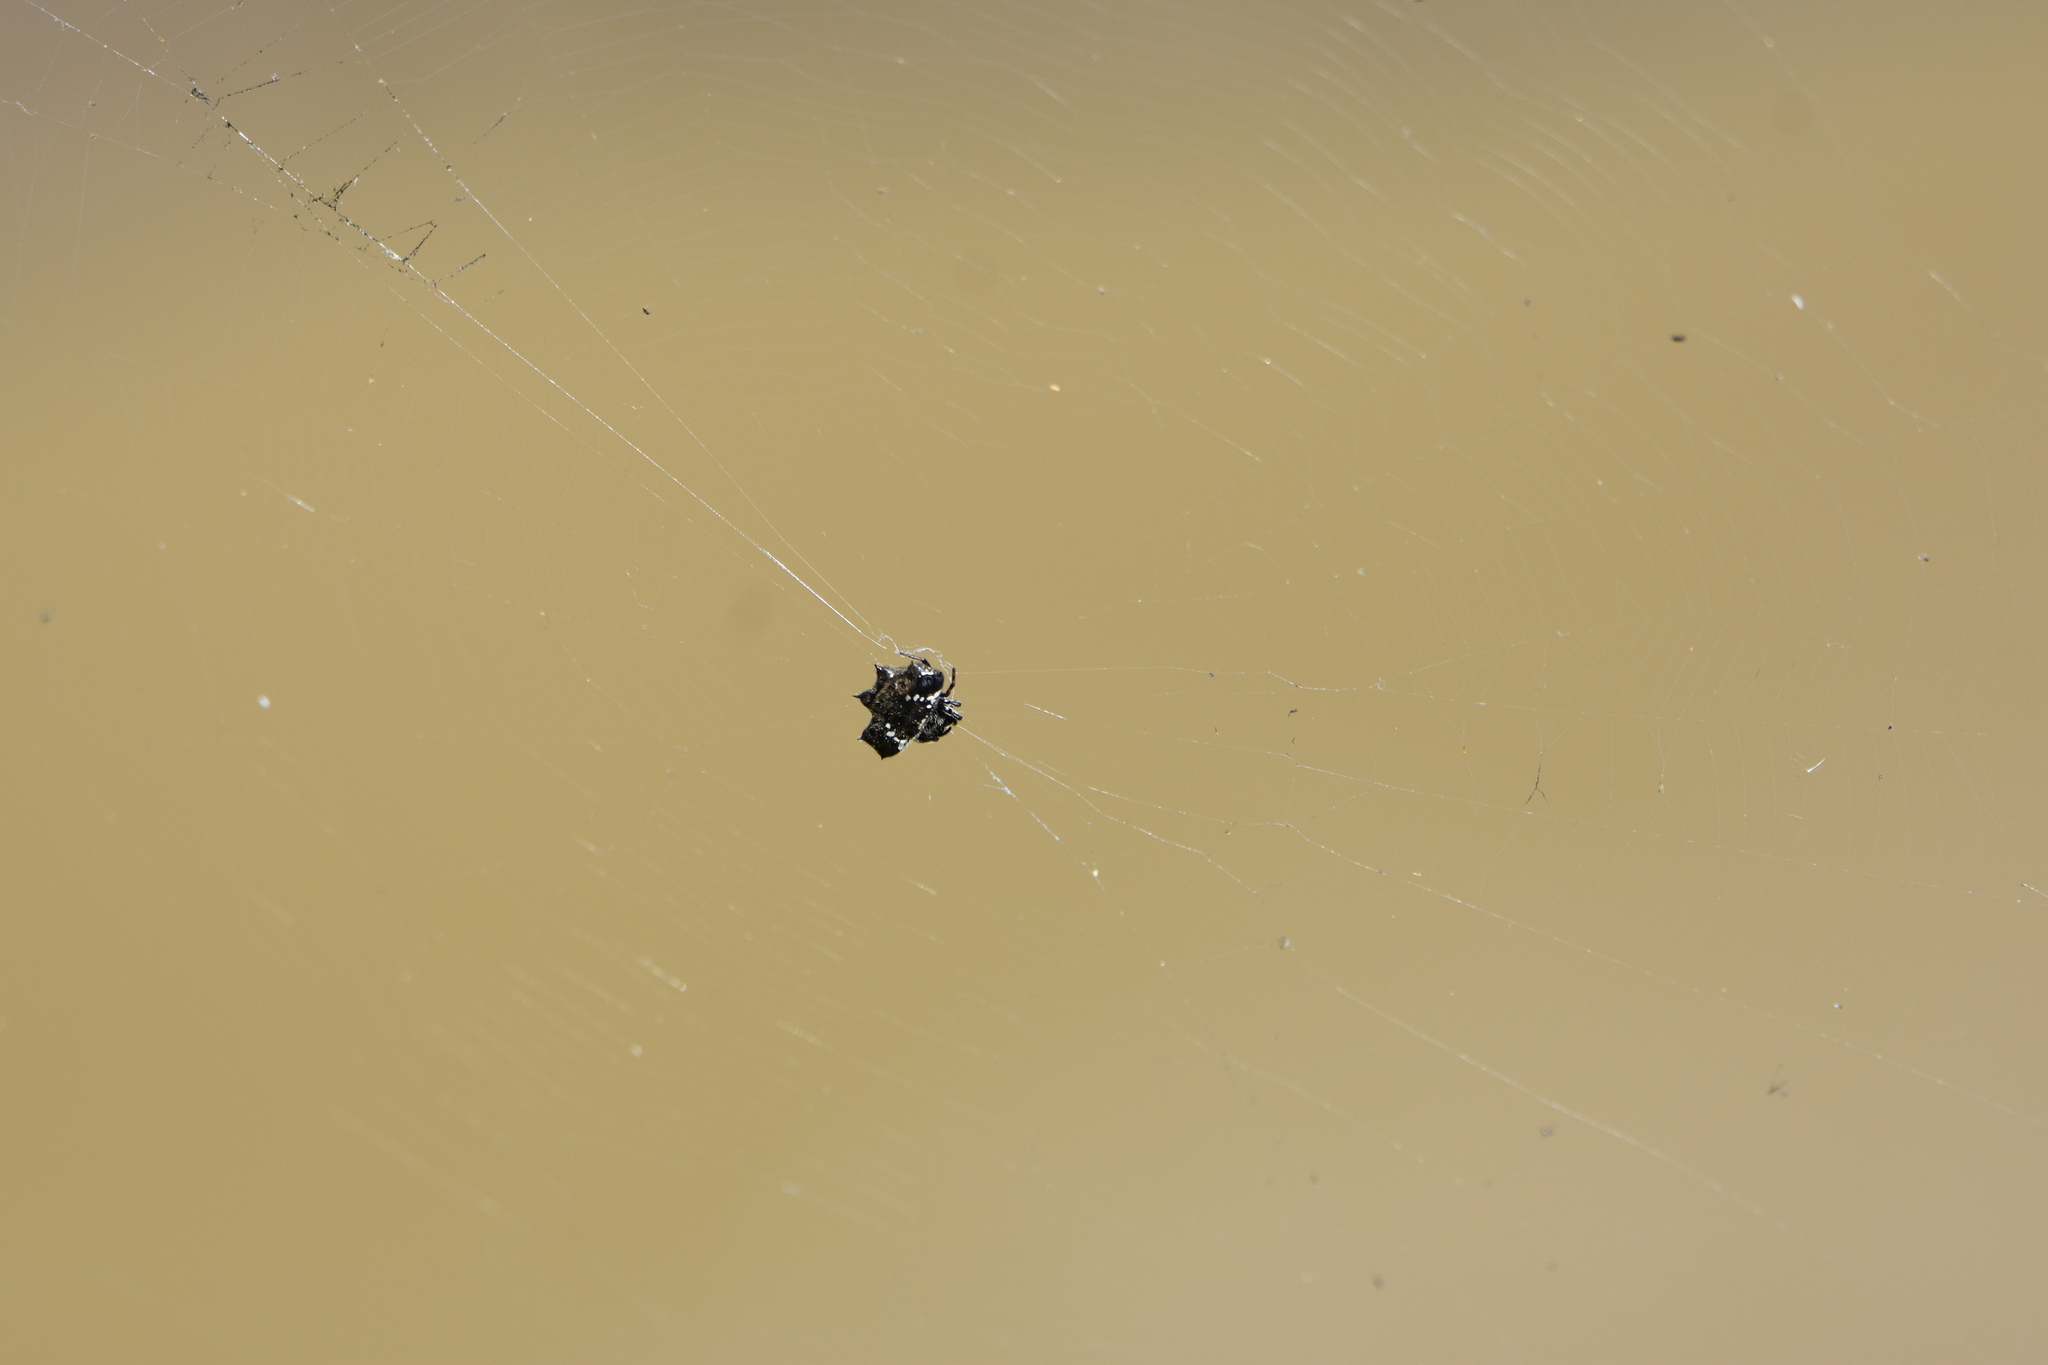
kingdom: Animalia
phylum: Arthropoda
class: Arachnida
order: Araneae
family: Araneidae
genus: Gasteracantha
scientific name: Gasteracantha cancriformis
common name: Orb weavers
